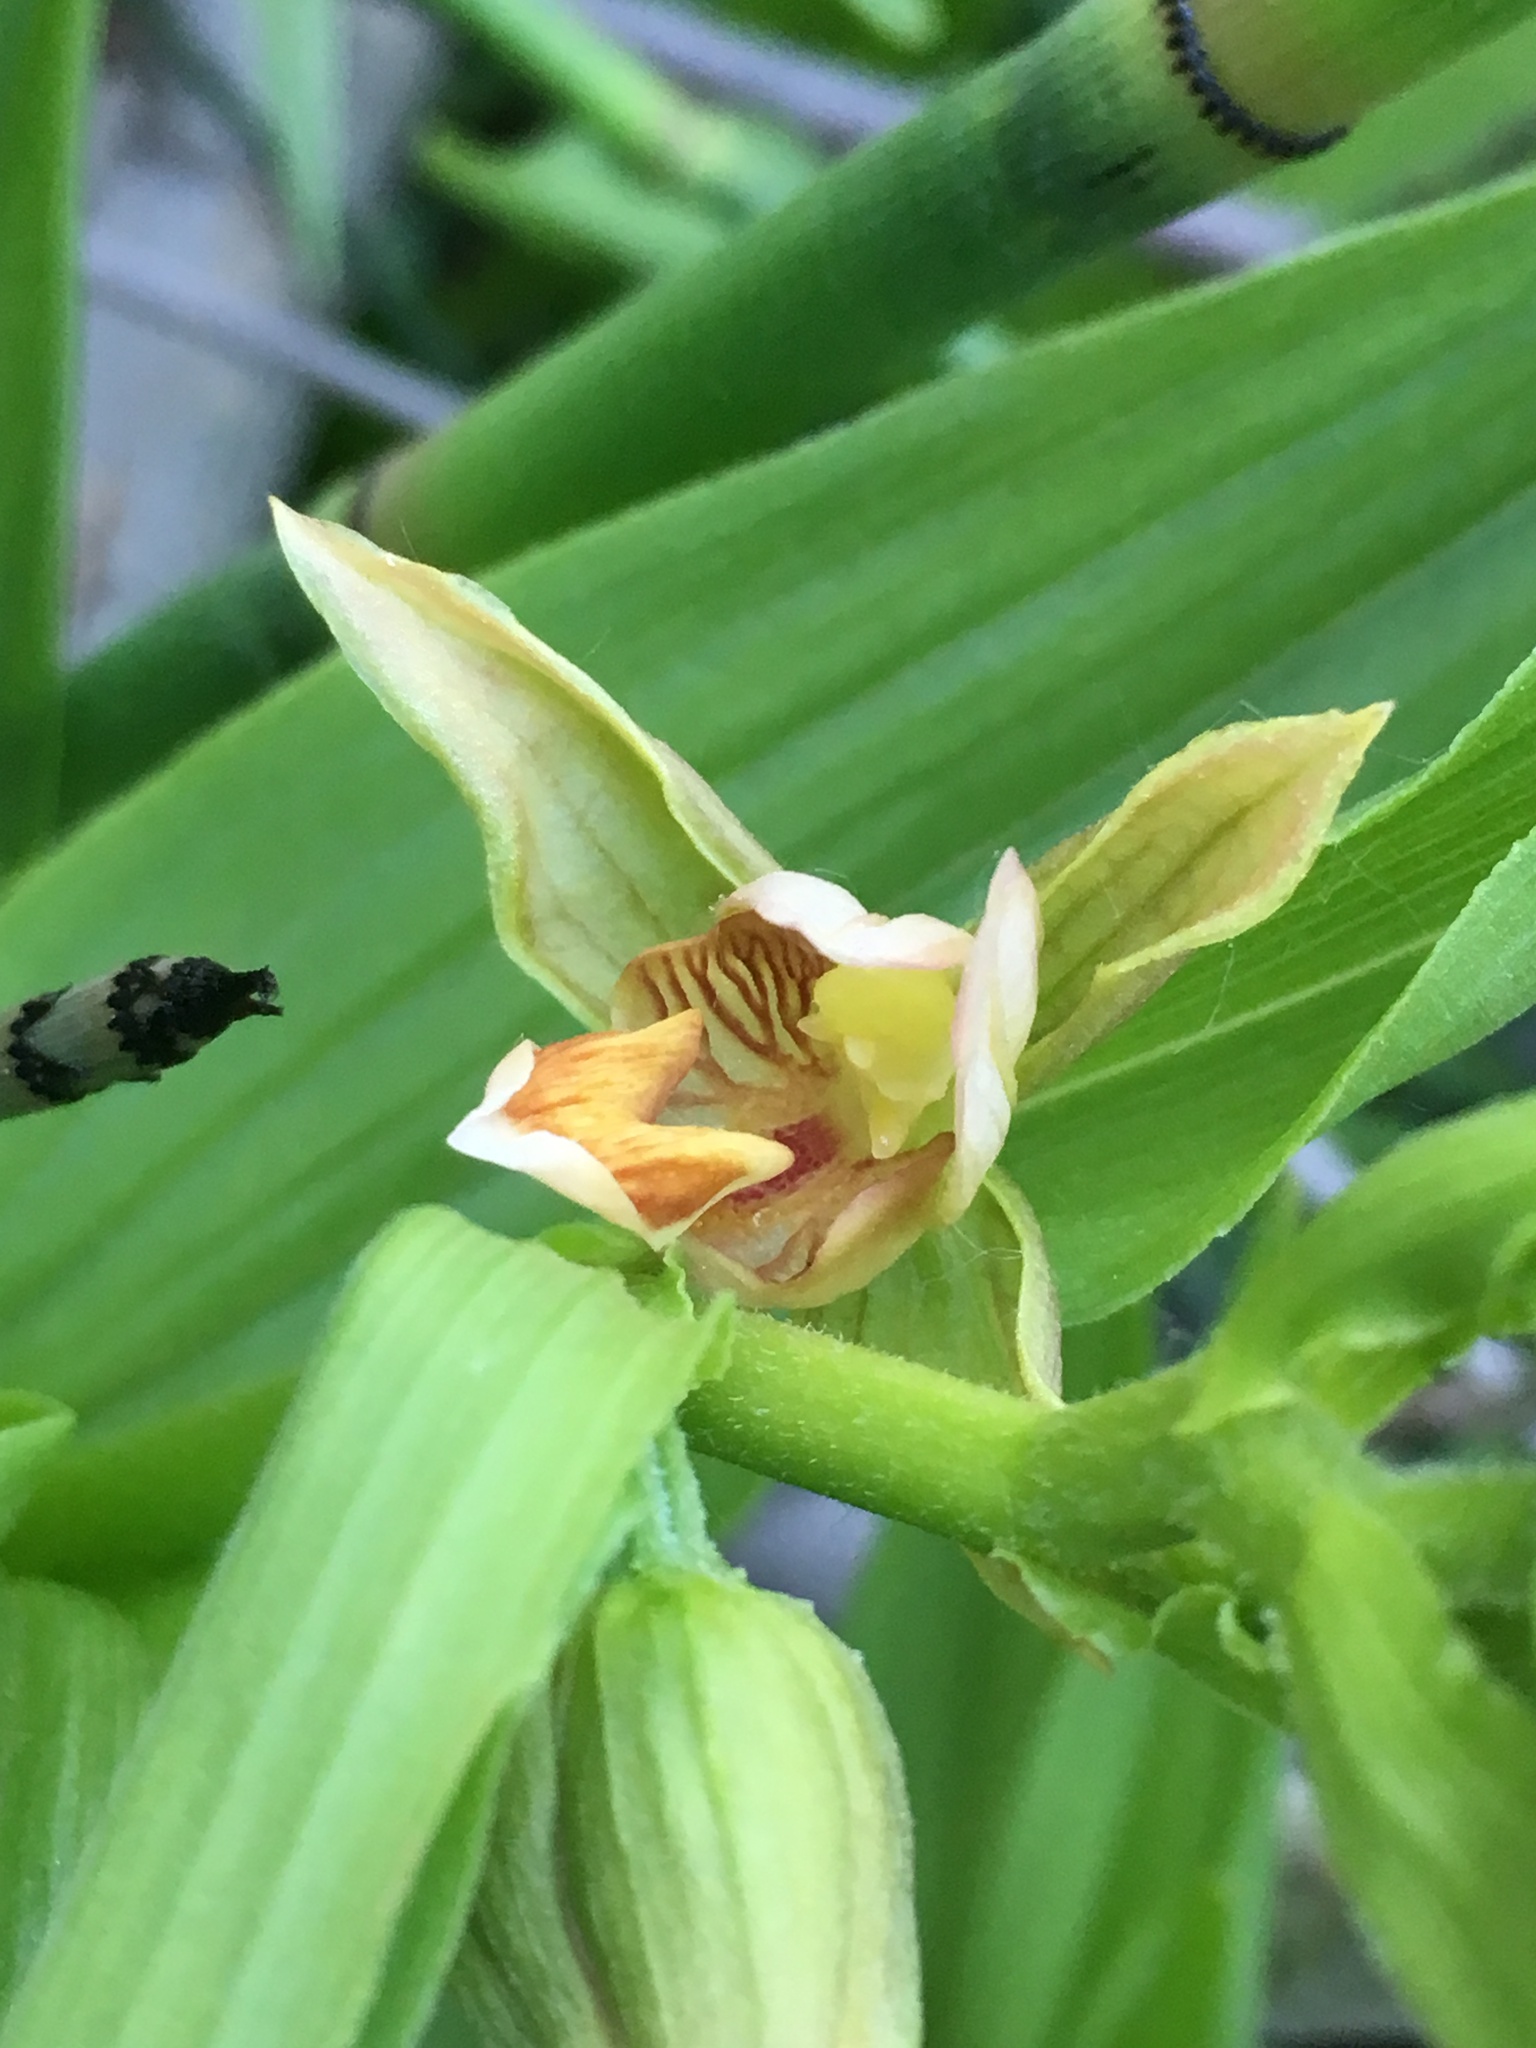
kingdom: Plantae
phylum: Tracheophyta
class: Liliopsida
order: Asparagales
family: Orchidaceae
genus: Epipactis
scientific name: Epipactis gigantea
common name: Chatterbox
